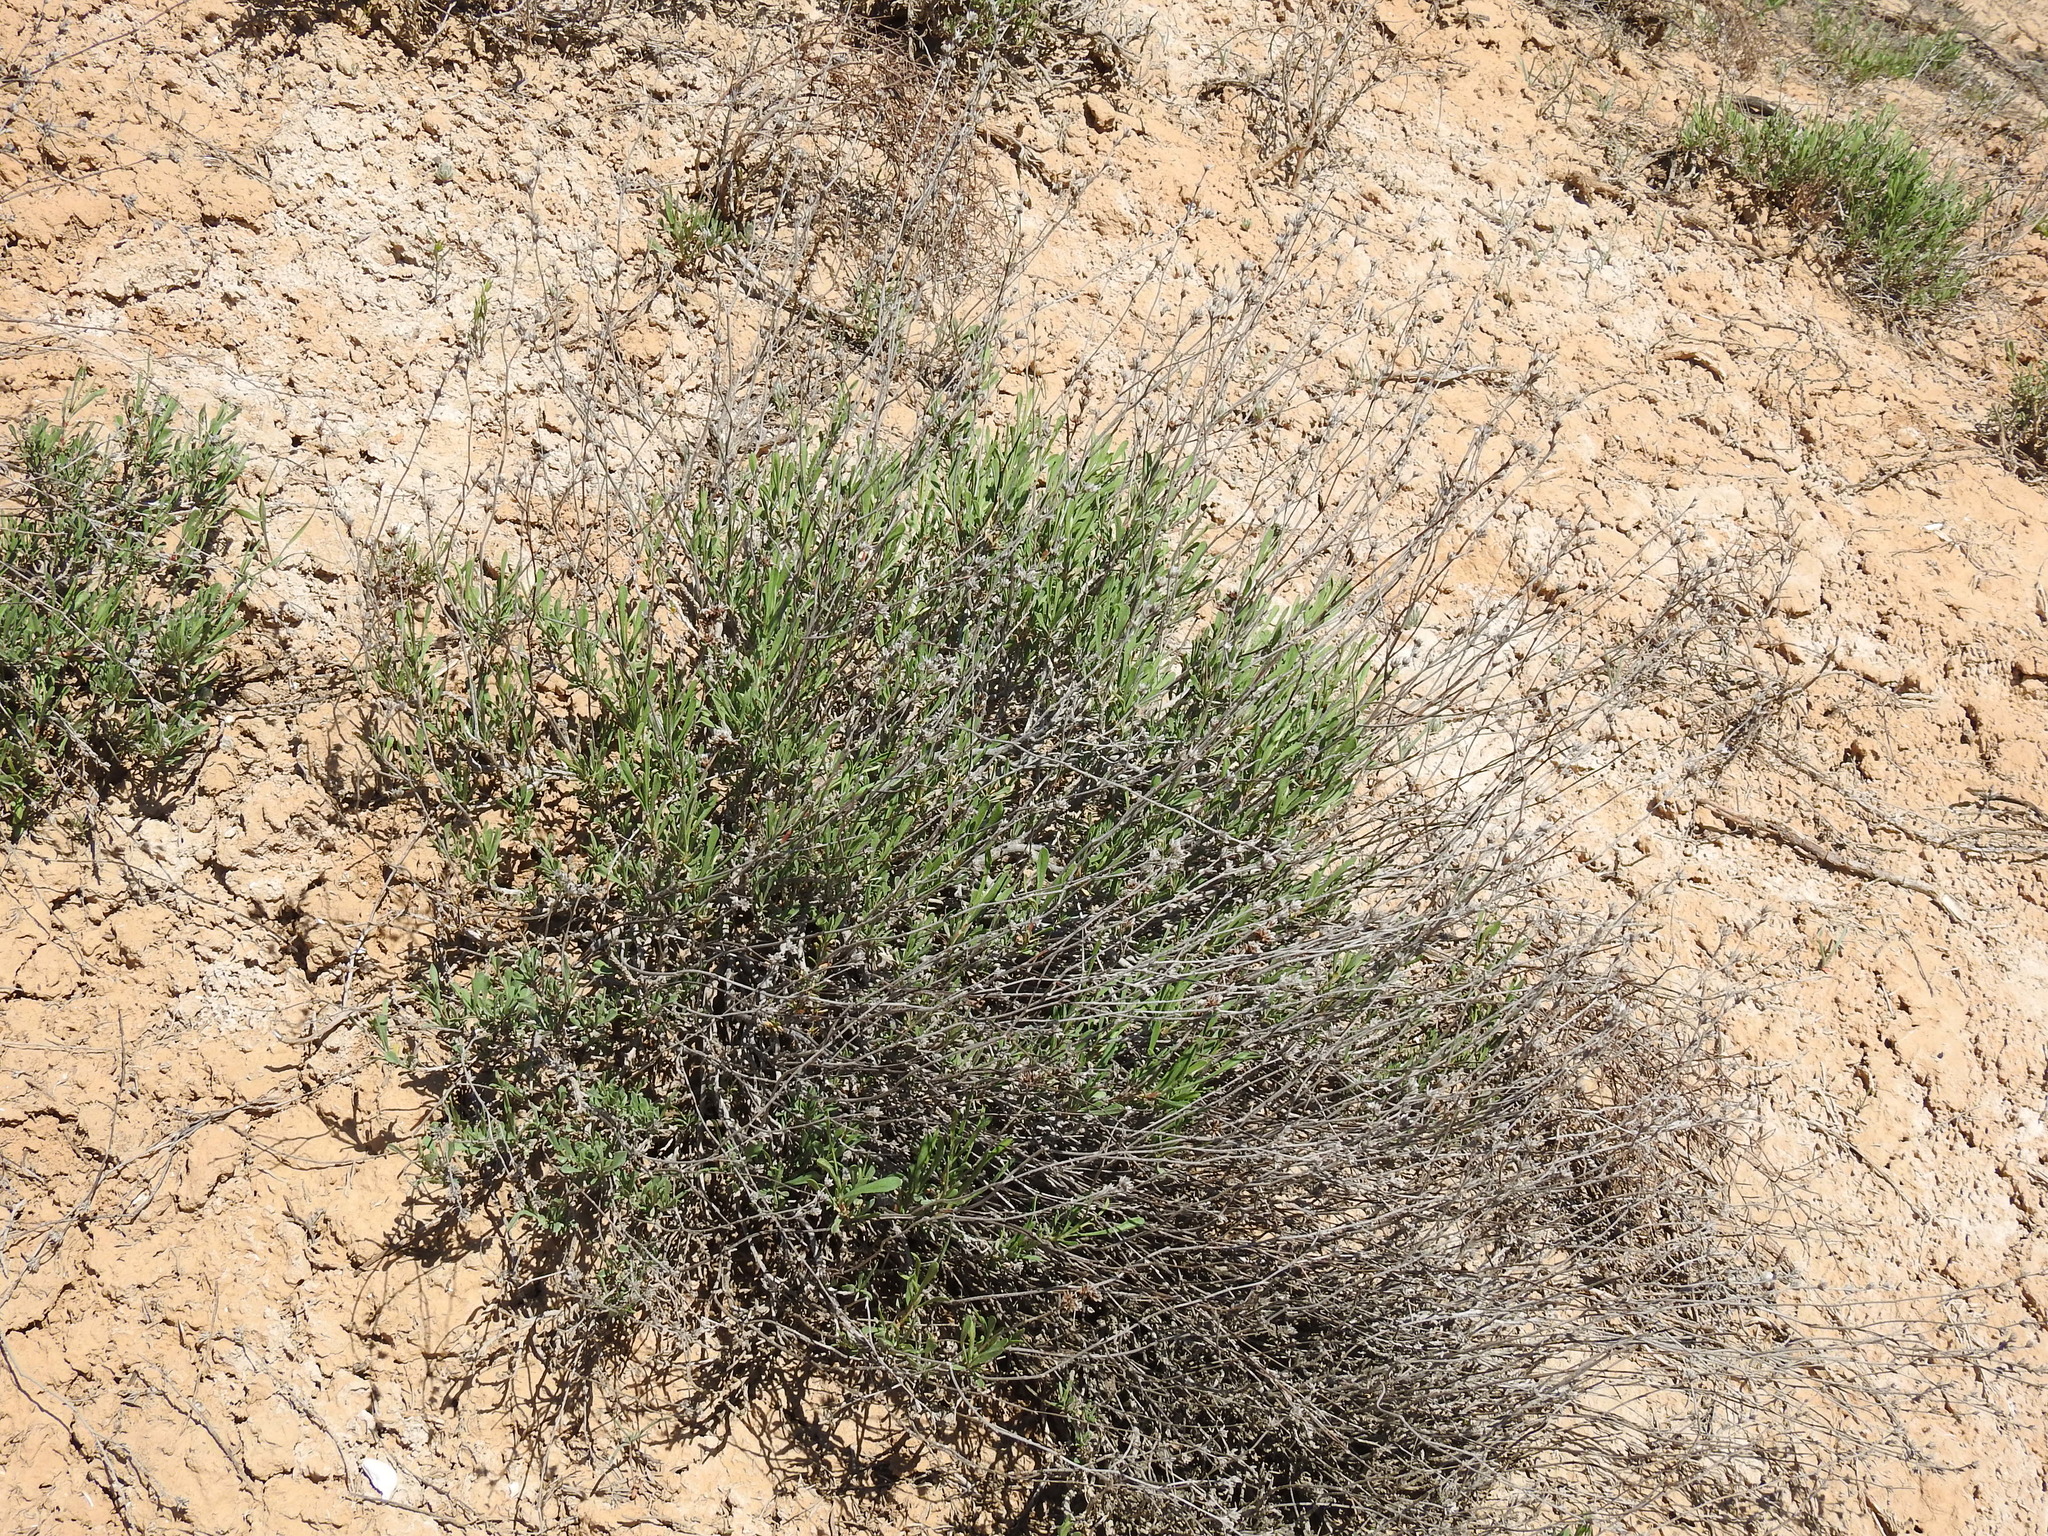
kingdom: Plantae
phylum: Tracheophyta
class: Magnoliopsida
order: Caryophyllales
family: Plumbaginaceae
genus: Limonium
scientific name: Limonium suffruticosum
